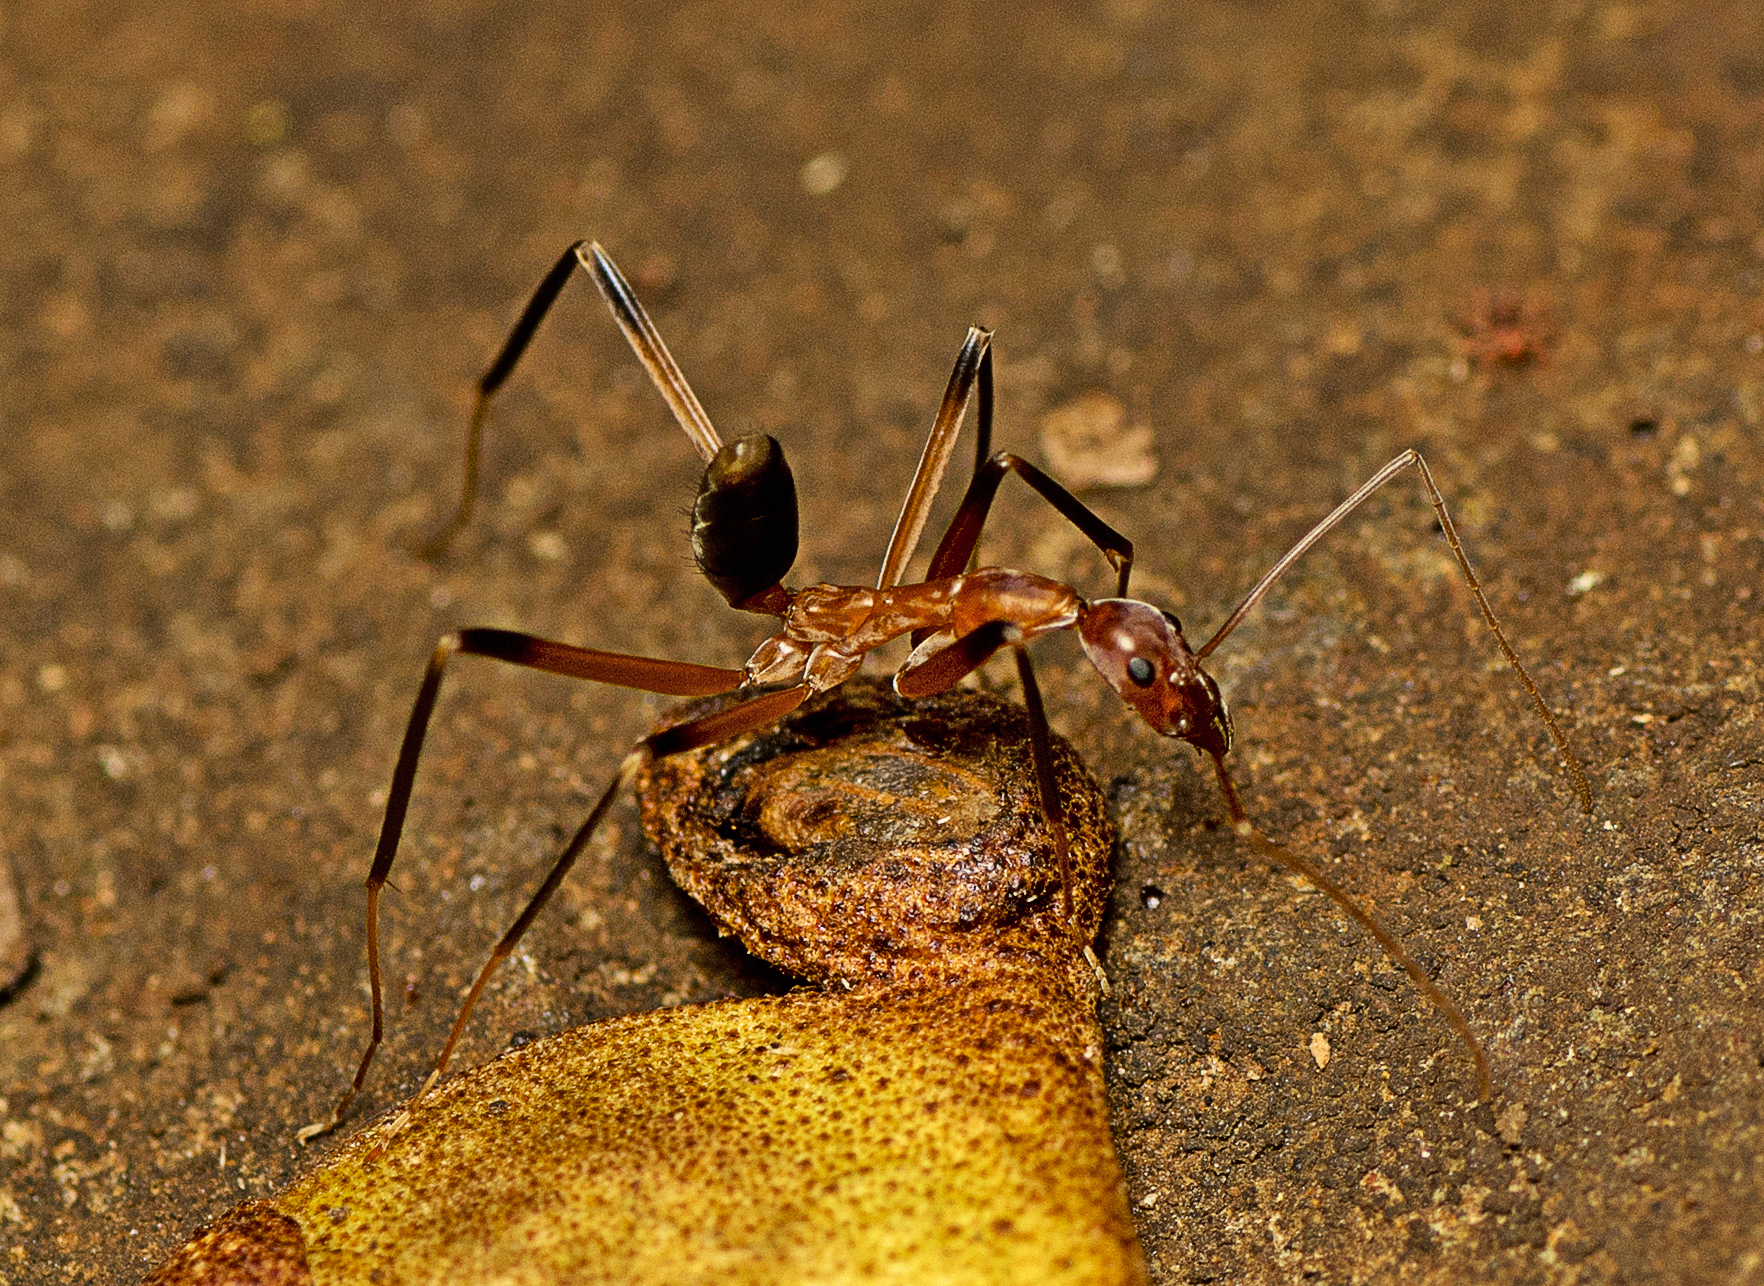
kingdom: Animalia
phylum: Arthropoda
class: Insecta
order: Hymenoptera
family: Formicidae
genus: Leptomyrmex
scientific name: Leptomyrmex cnemidatus
